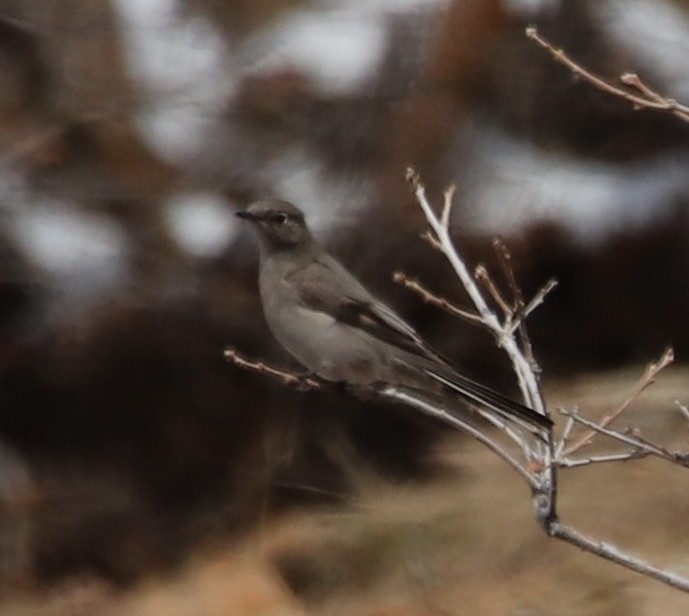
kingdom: Animalia
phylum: Chordata
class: Aves
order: Passeriformes
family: Turdidae
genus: Myadestes
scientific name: Myadestes townsendi
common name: Townsend's solitaire
